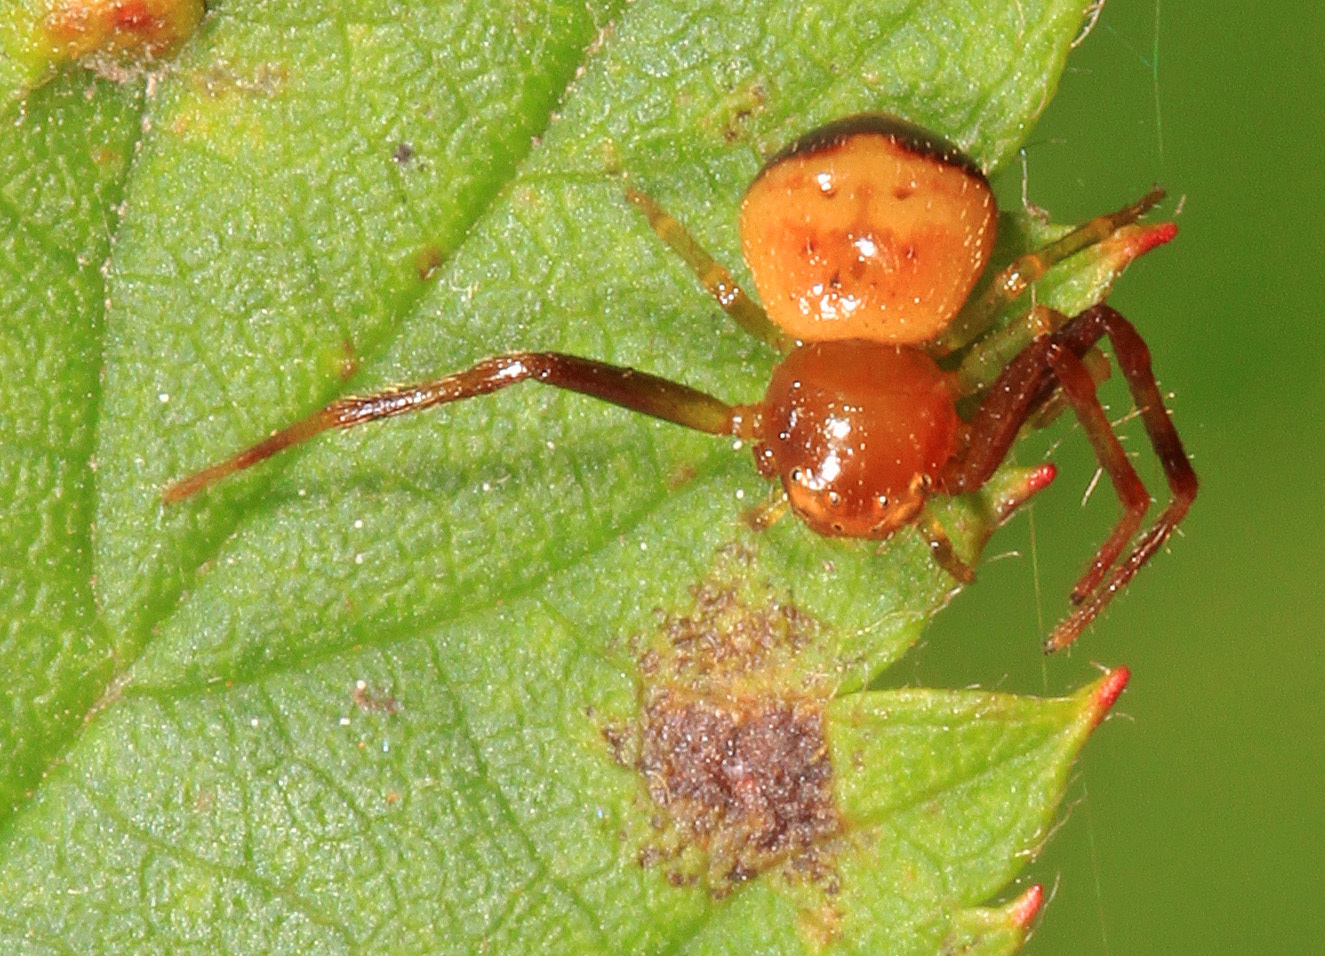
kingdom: Animalia
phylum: Arthropoda
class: Arachnida
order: Araneae
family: Thomisidae
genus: Synema
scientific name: Synema parvulum
